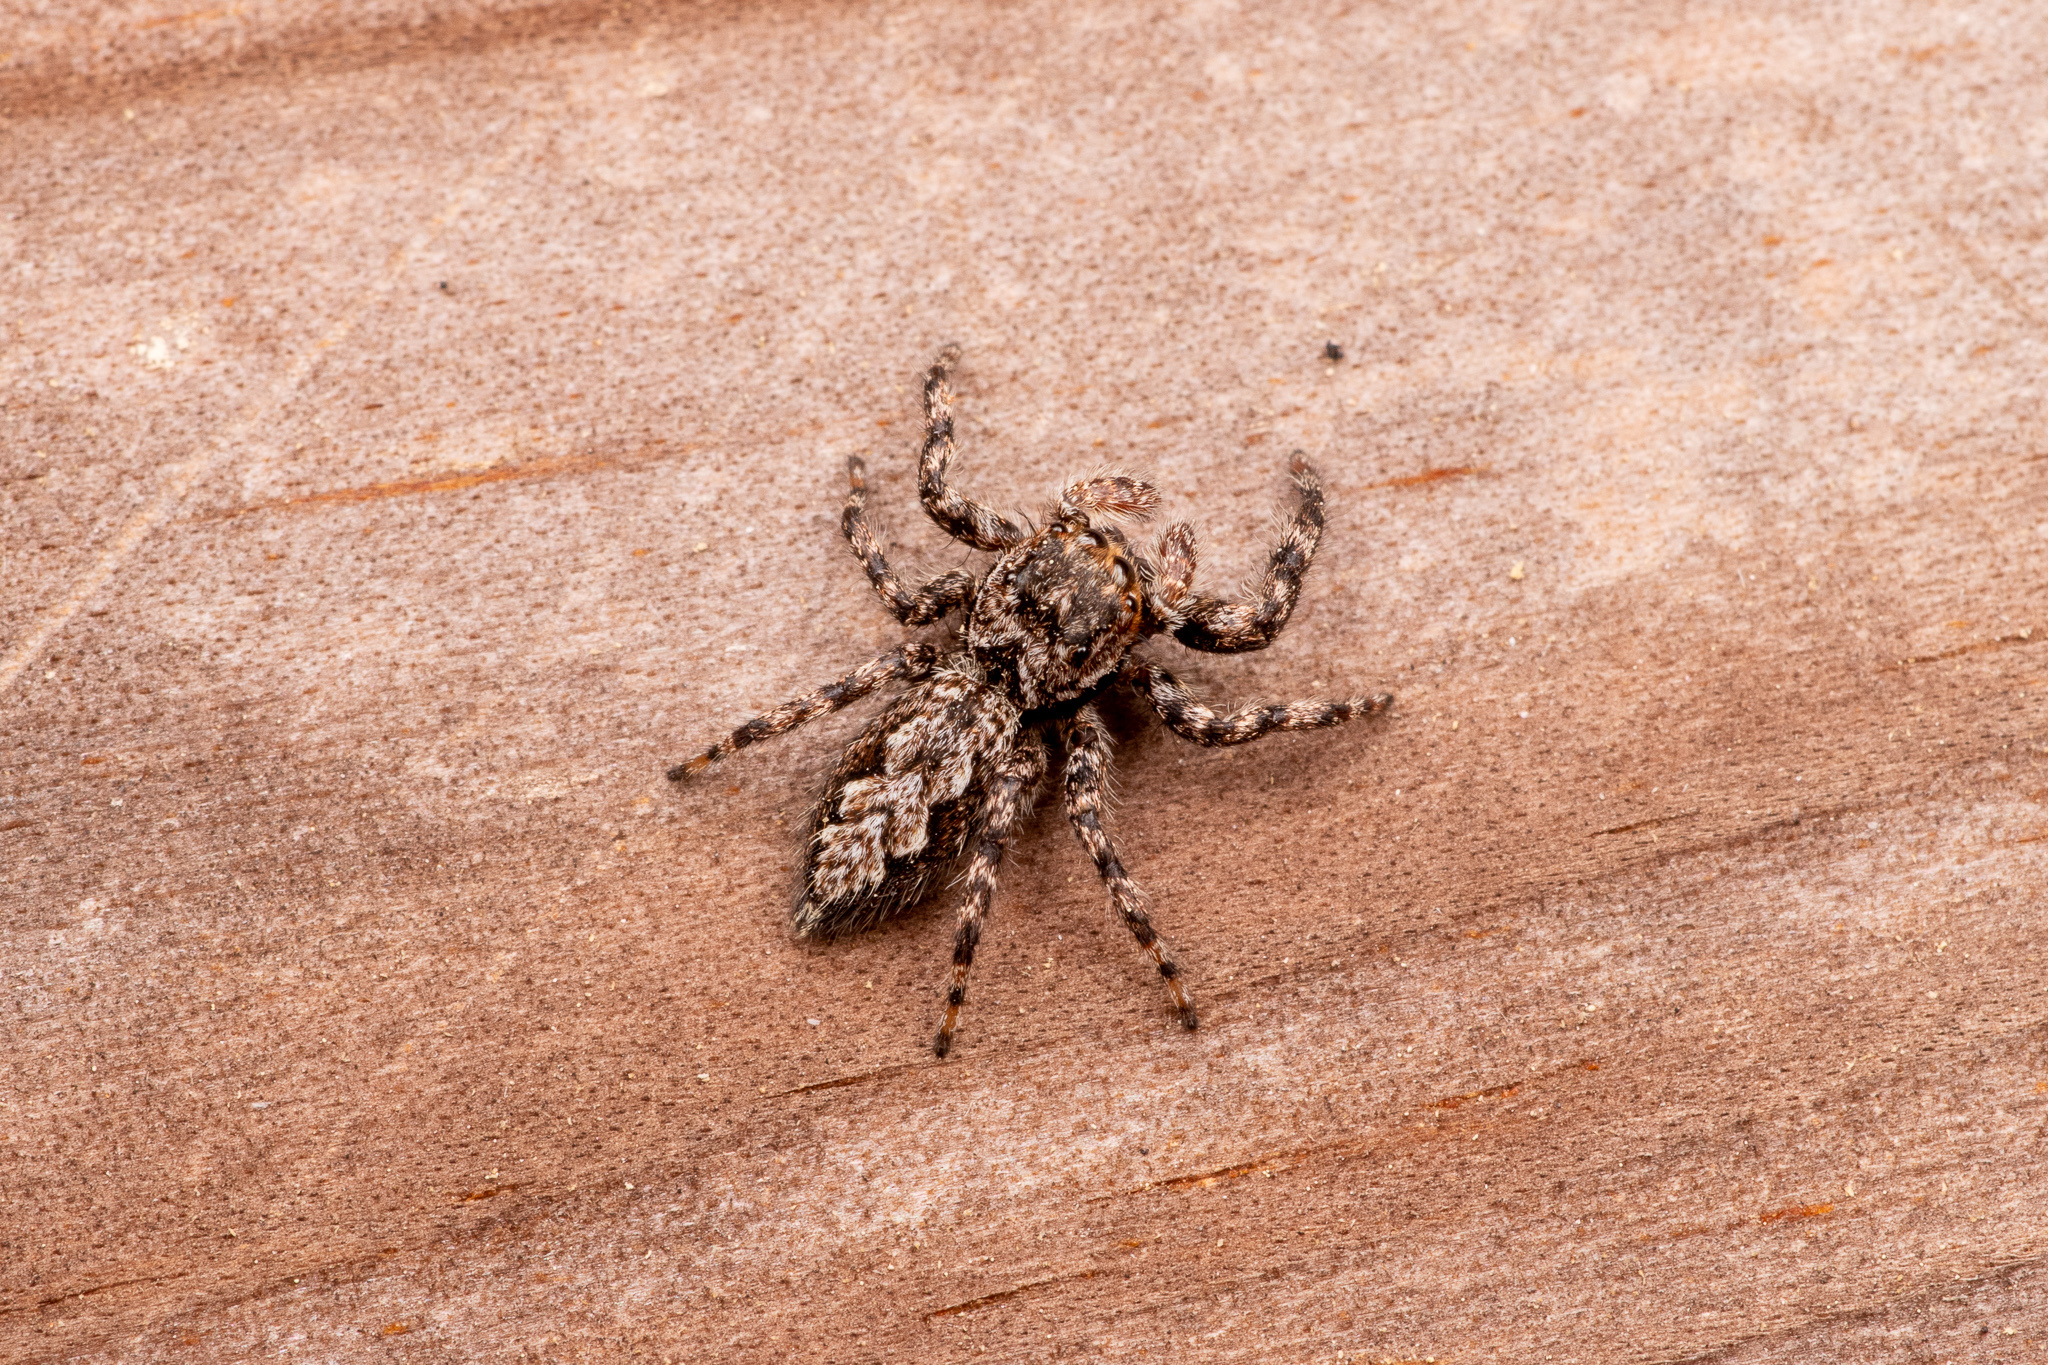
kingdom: Animalia
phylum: Arthropoda
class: Arachnida
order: Araneae
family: Salticidae
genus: Platycryptus
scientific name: Platycryptus undatus
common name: Tan jumping spider
